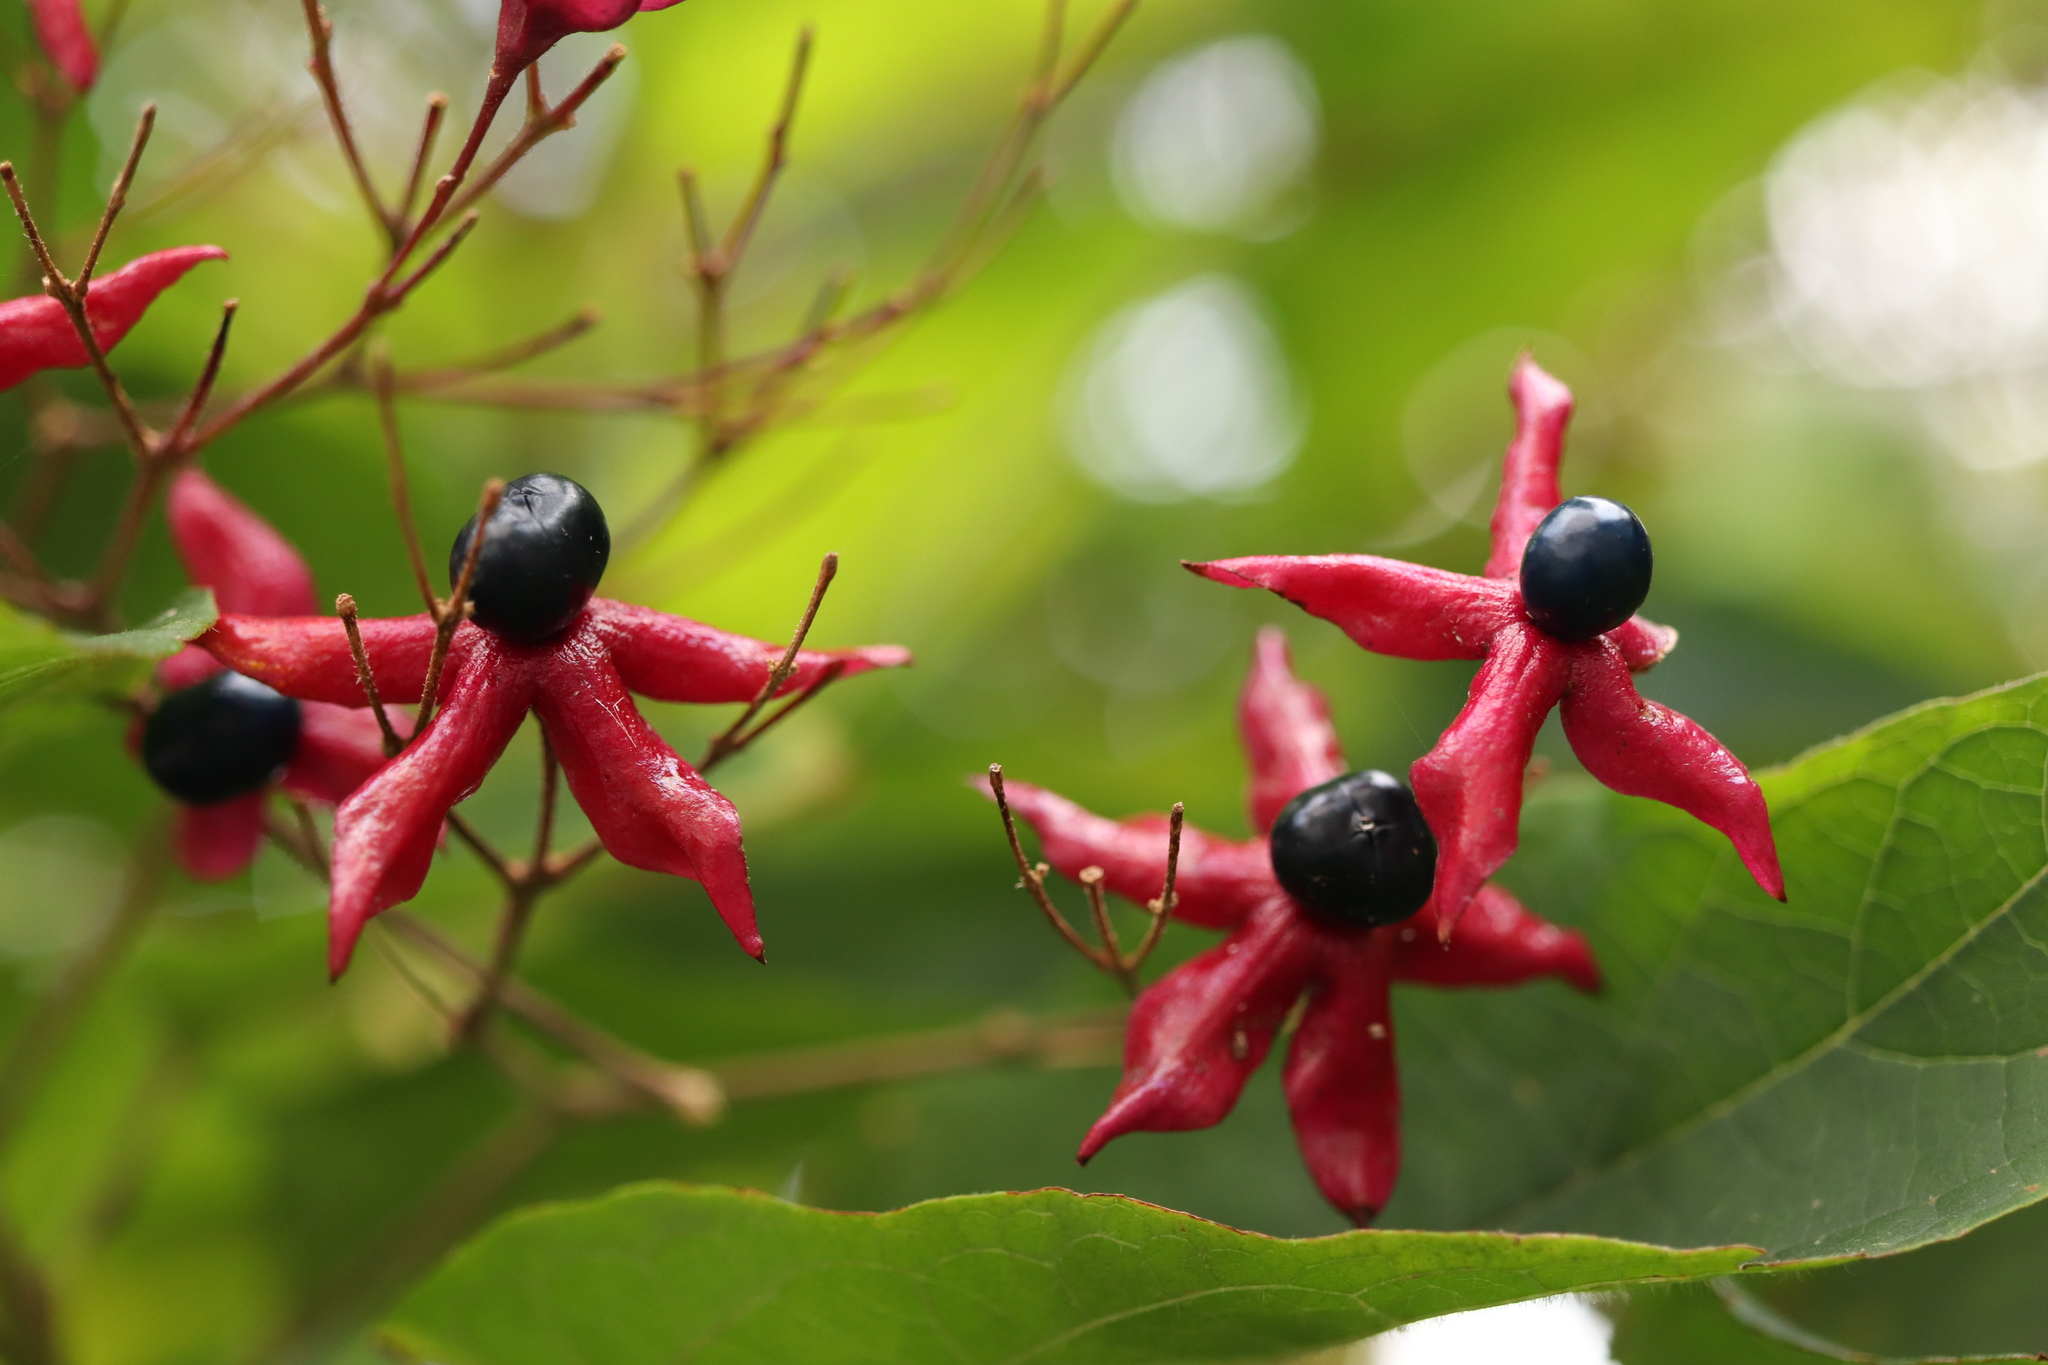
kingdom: Plantae
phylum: Tracheophyta
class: Magnoliopsida
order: Lamiales
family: Lamiaceae
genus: Clerodendrum
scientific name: Clerodendrum trichotomum
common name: Harlequin glorybower
